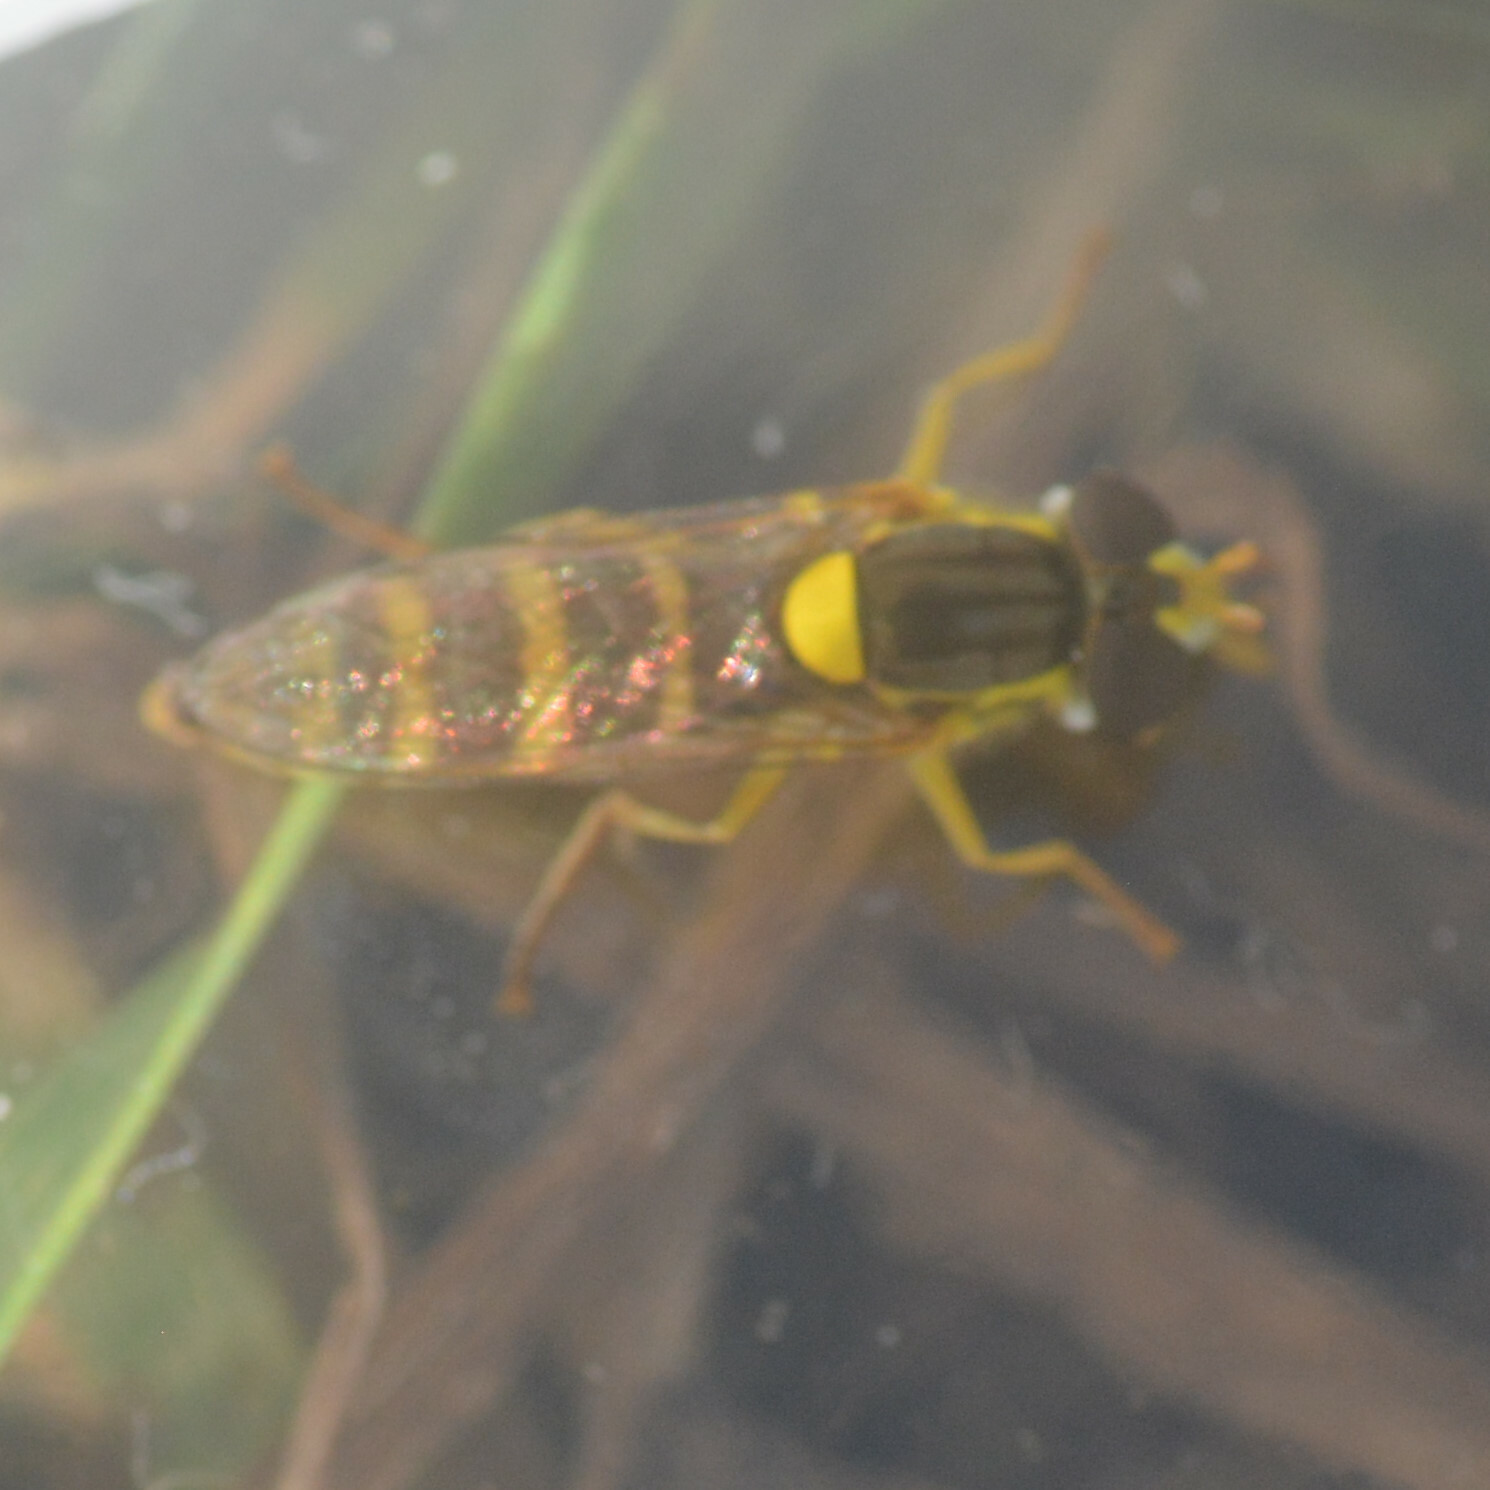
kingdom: Animalia
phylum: Arthropoda
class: Insecta
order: Diptera
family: Syrphidae
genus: Sphaerophoria
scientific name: Sphaerophoria
